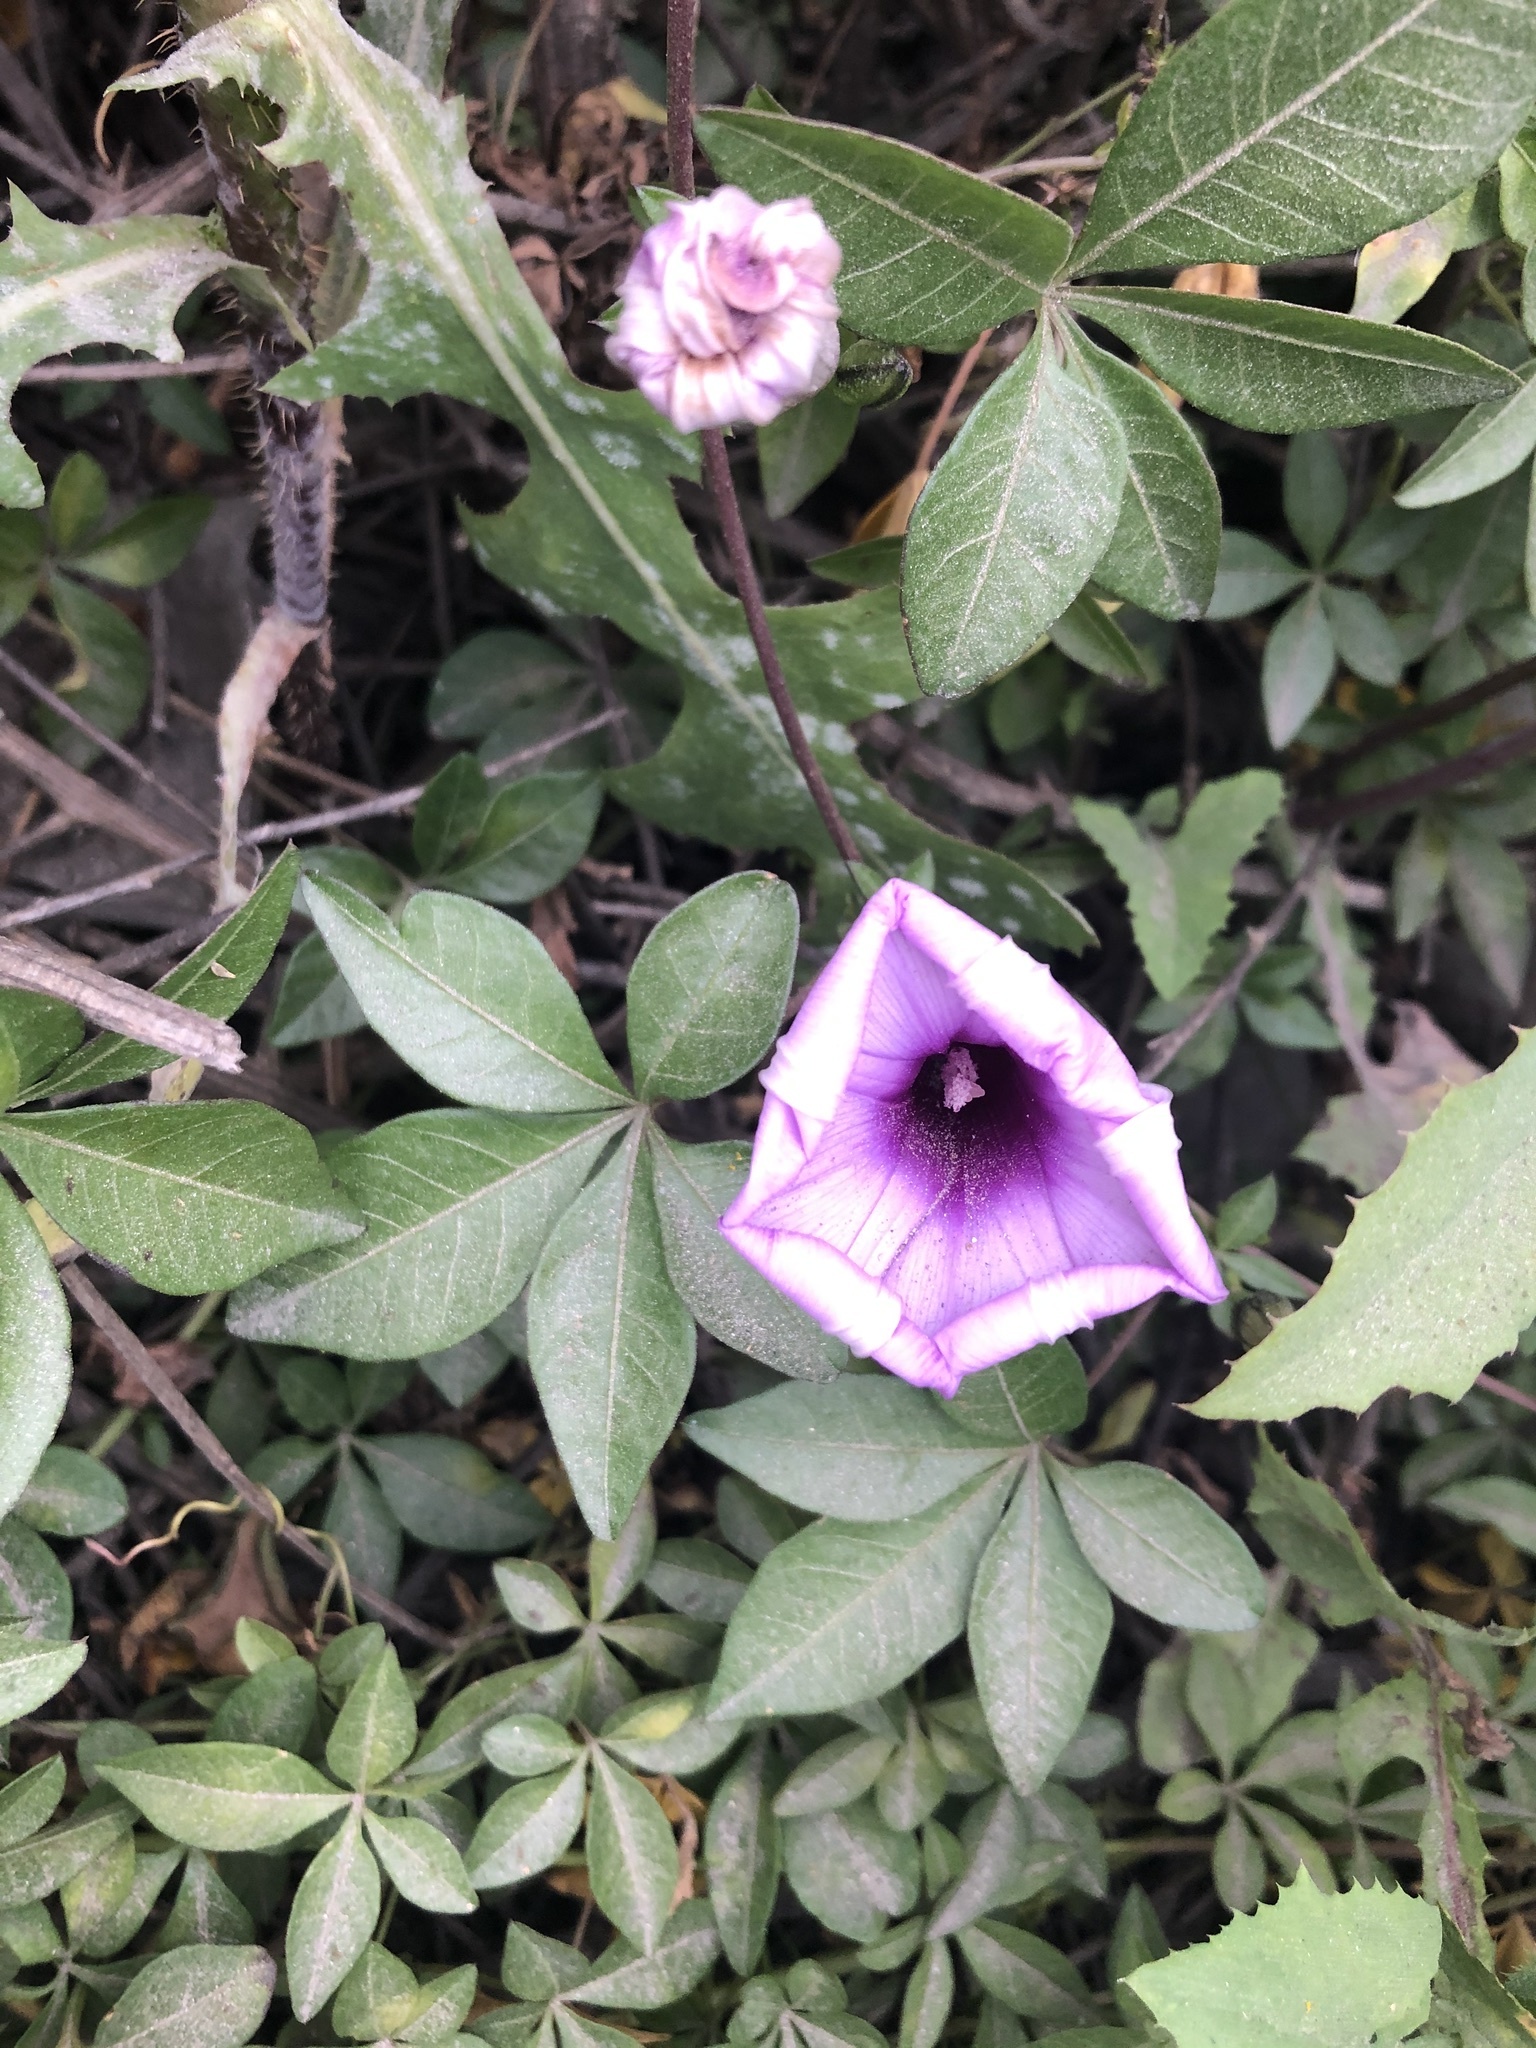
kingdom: Plantae
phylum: Tracheophyta
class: Magnoliopsida
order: Solanales
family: Convolvulaceae
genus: Ipomoea
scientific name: Ipomoea cairica
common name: Mile a minute vine
